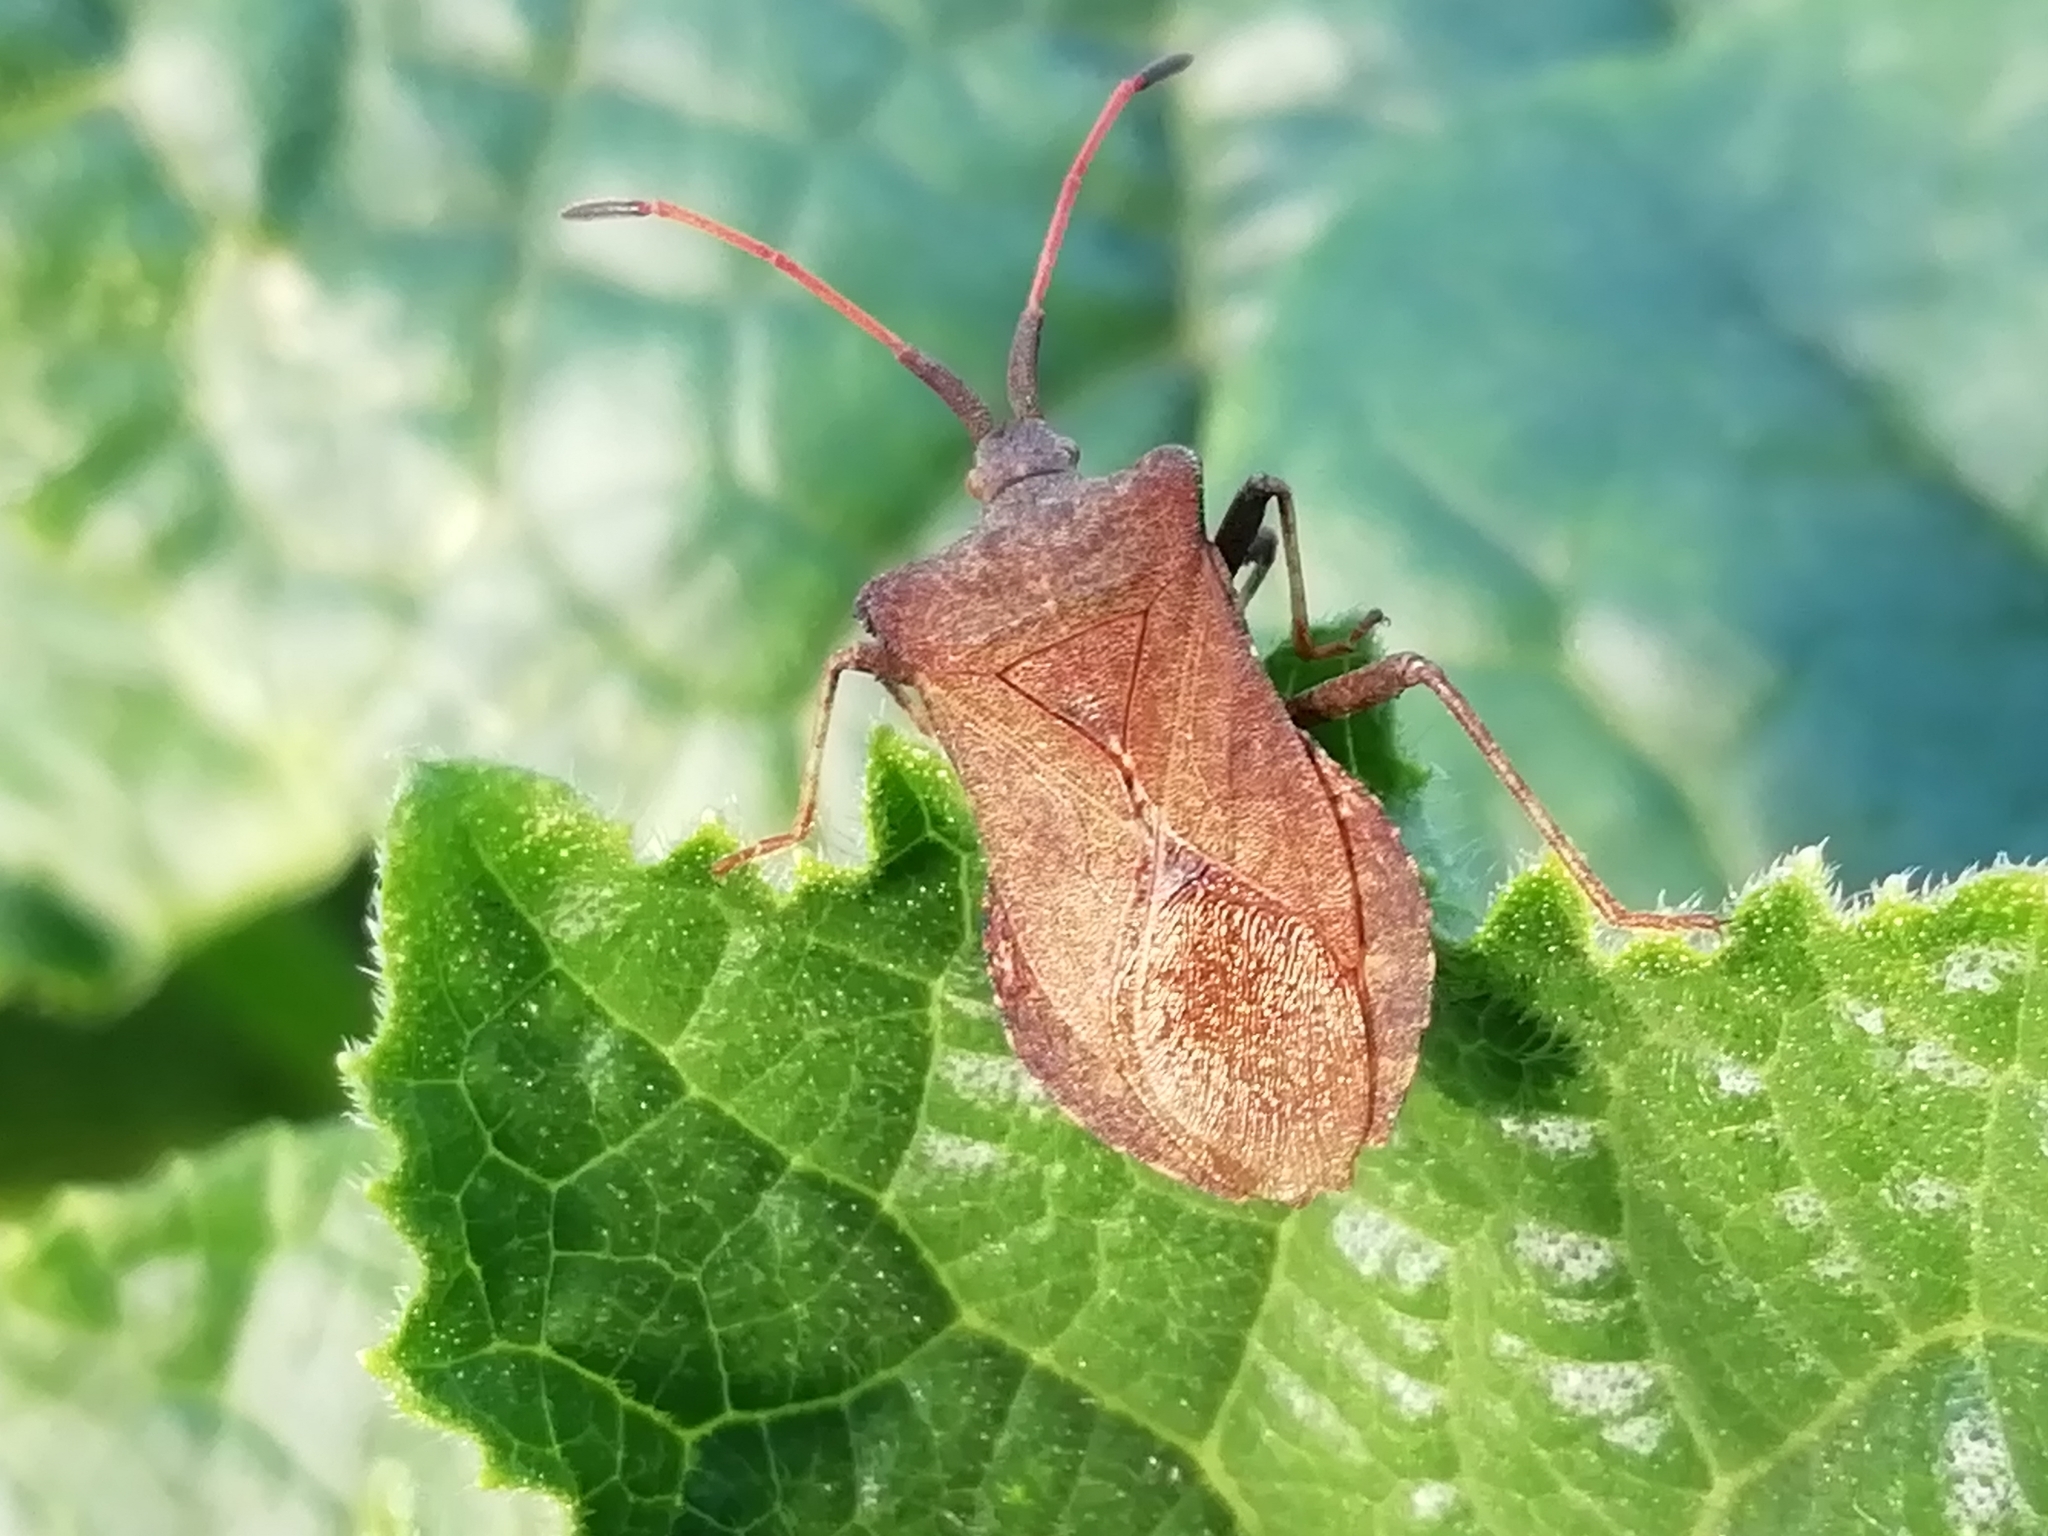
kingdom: Animalia
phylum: Arthropoda
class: Insecta
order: Hemiptera
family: Coreidae
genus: Coreus
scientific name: Coreus marginatus
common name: Dock bug
